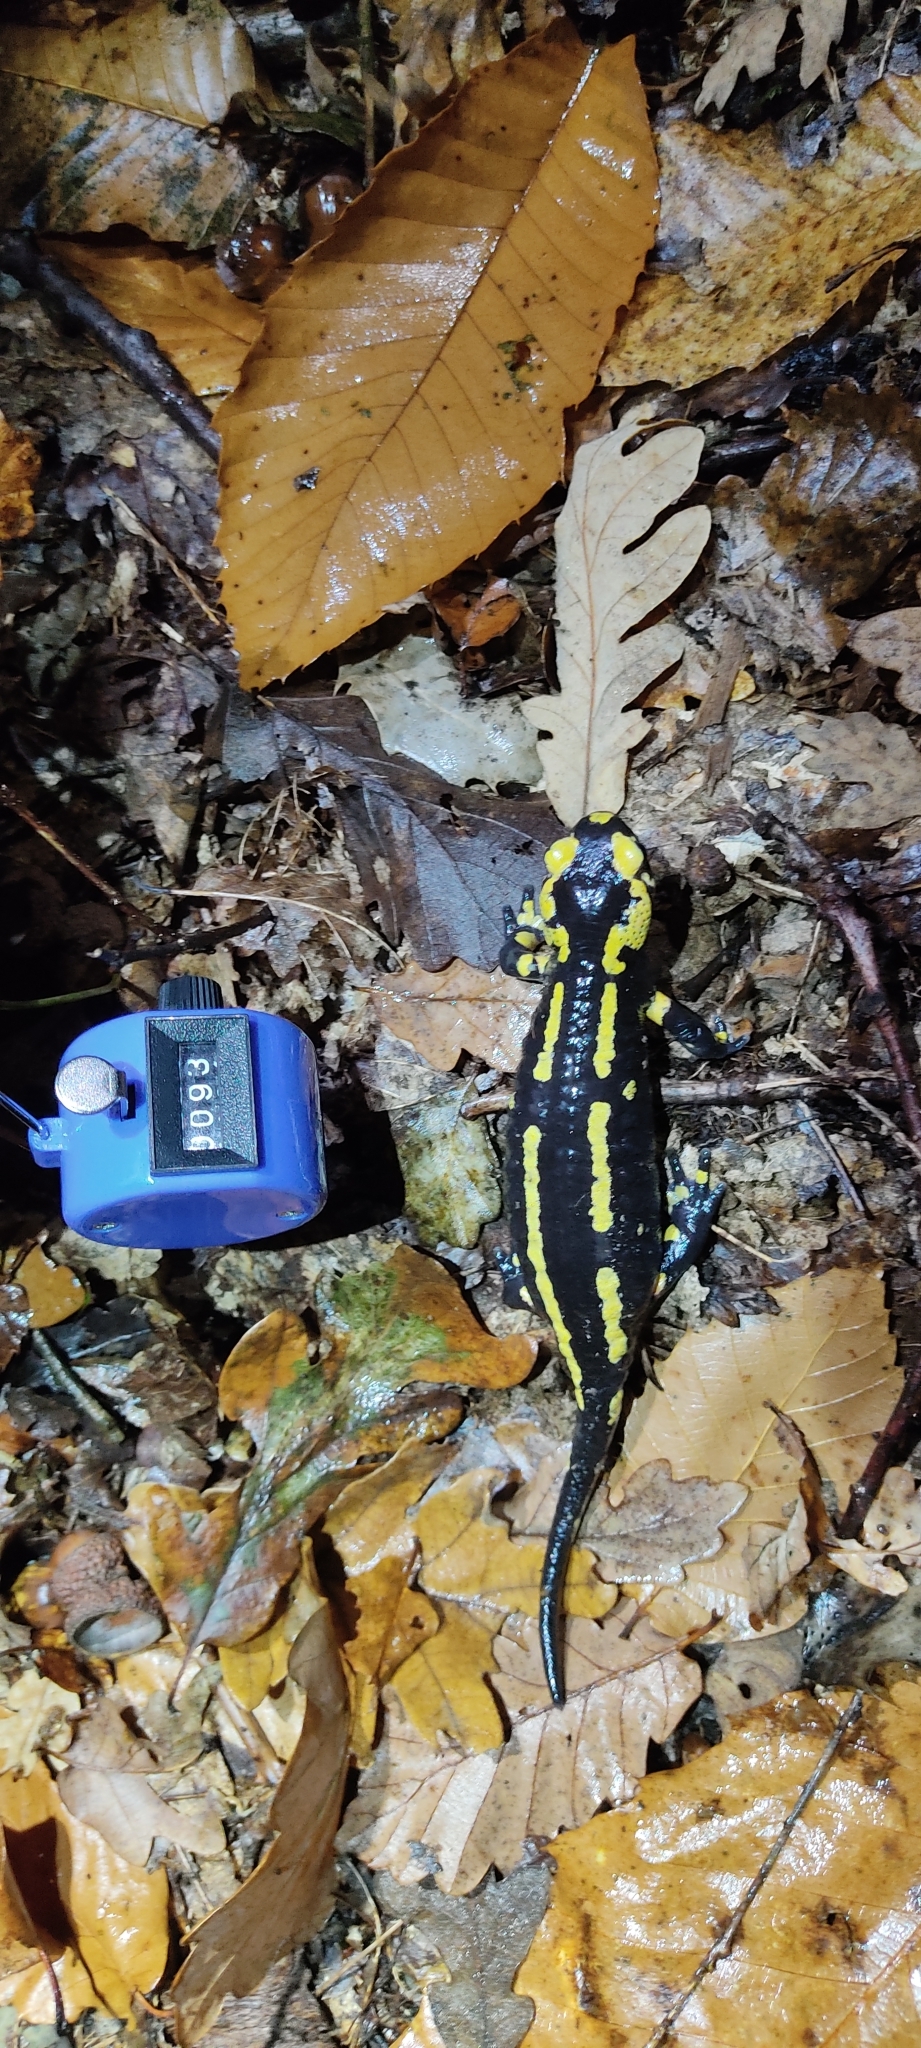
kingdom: Animalia
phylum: Chordata
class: Amphibia
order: Caudata
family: Salamandridae
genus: Salamandra
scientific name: Salamandra salamandra
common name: Fire salamander
